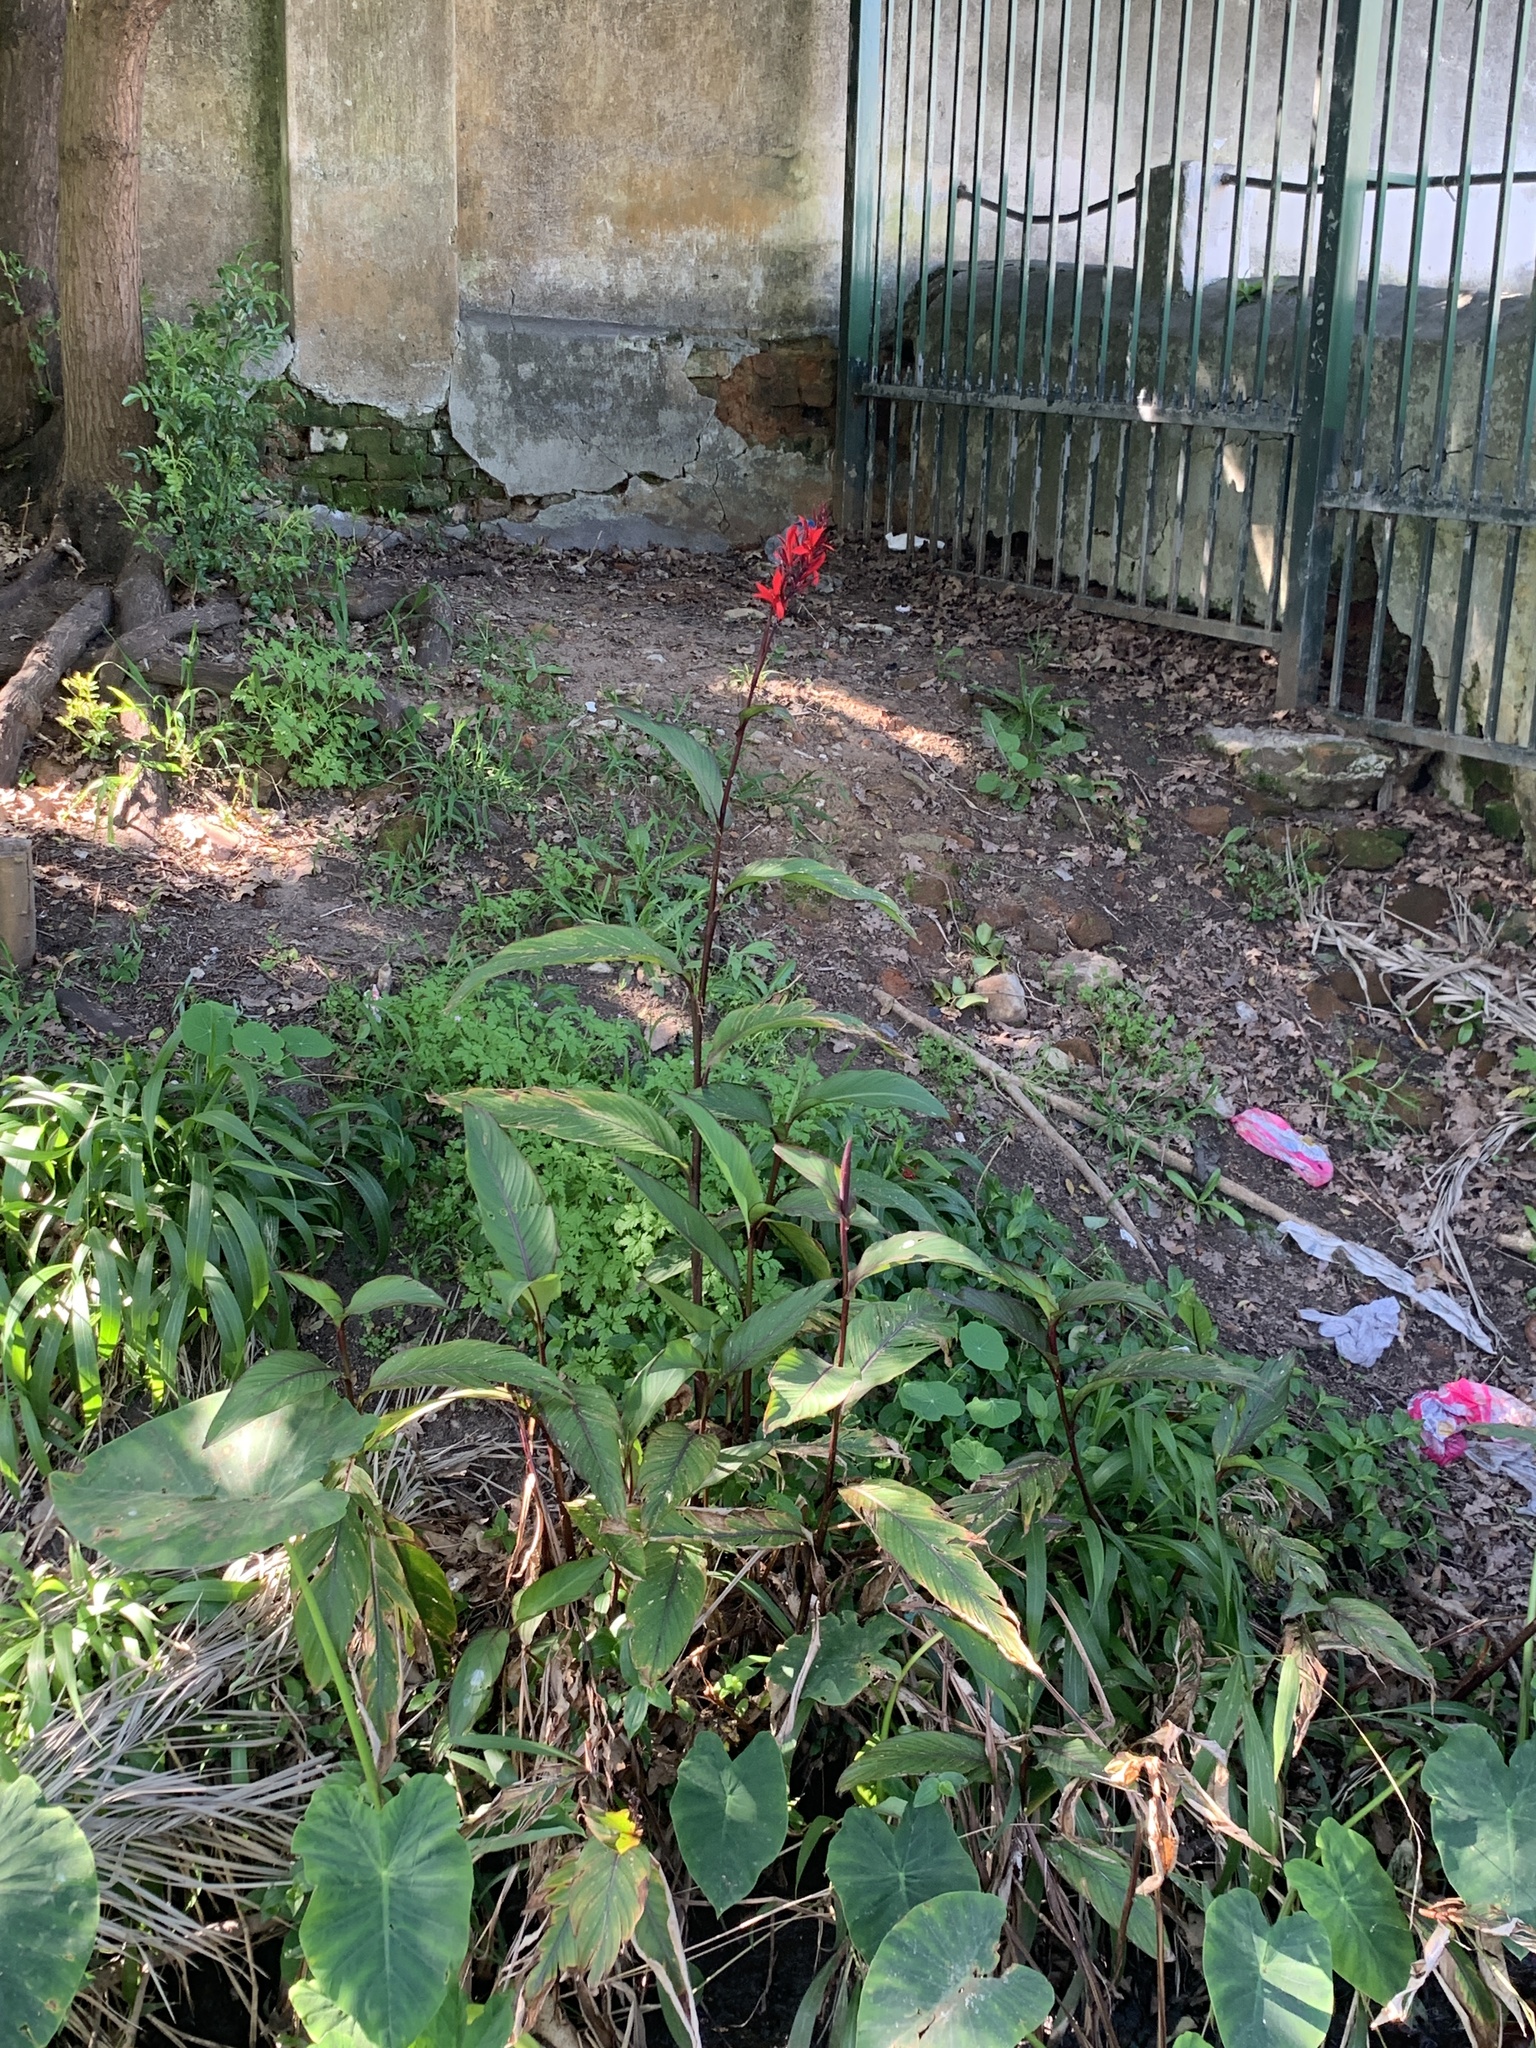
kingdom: Plantae
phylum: Tracheophyta
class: Liliopsida
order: Zingiberales
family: Cannaceae
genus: Canna
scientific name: Canna indica
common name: Indian shot
